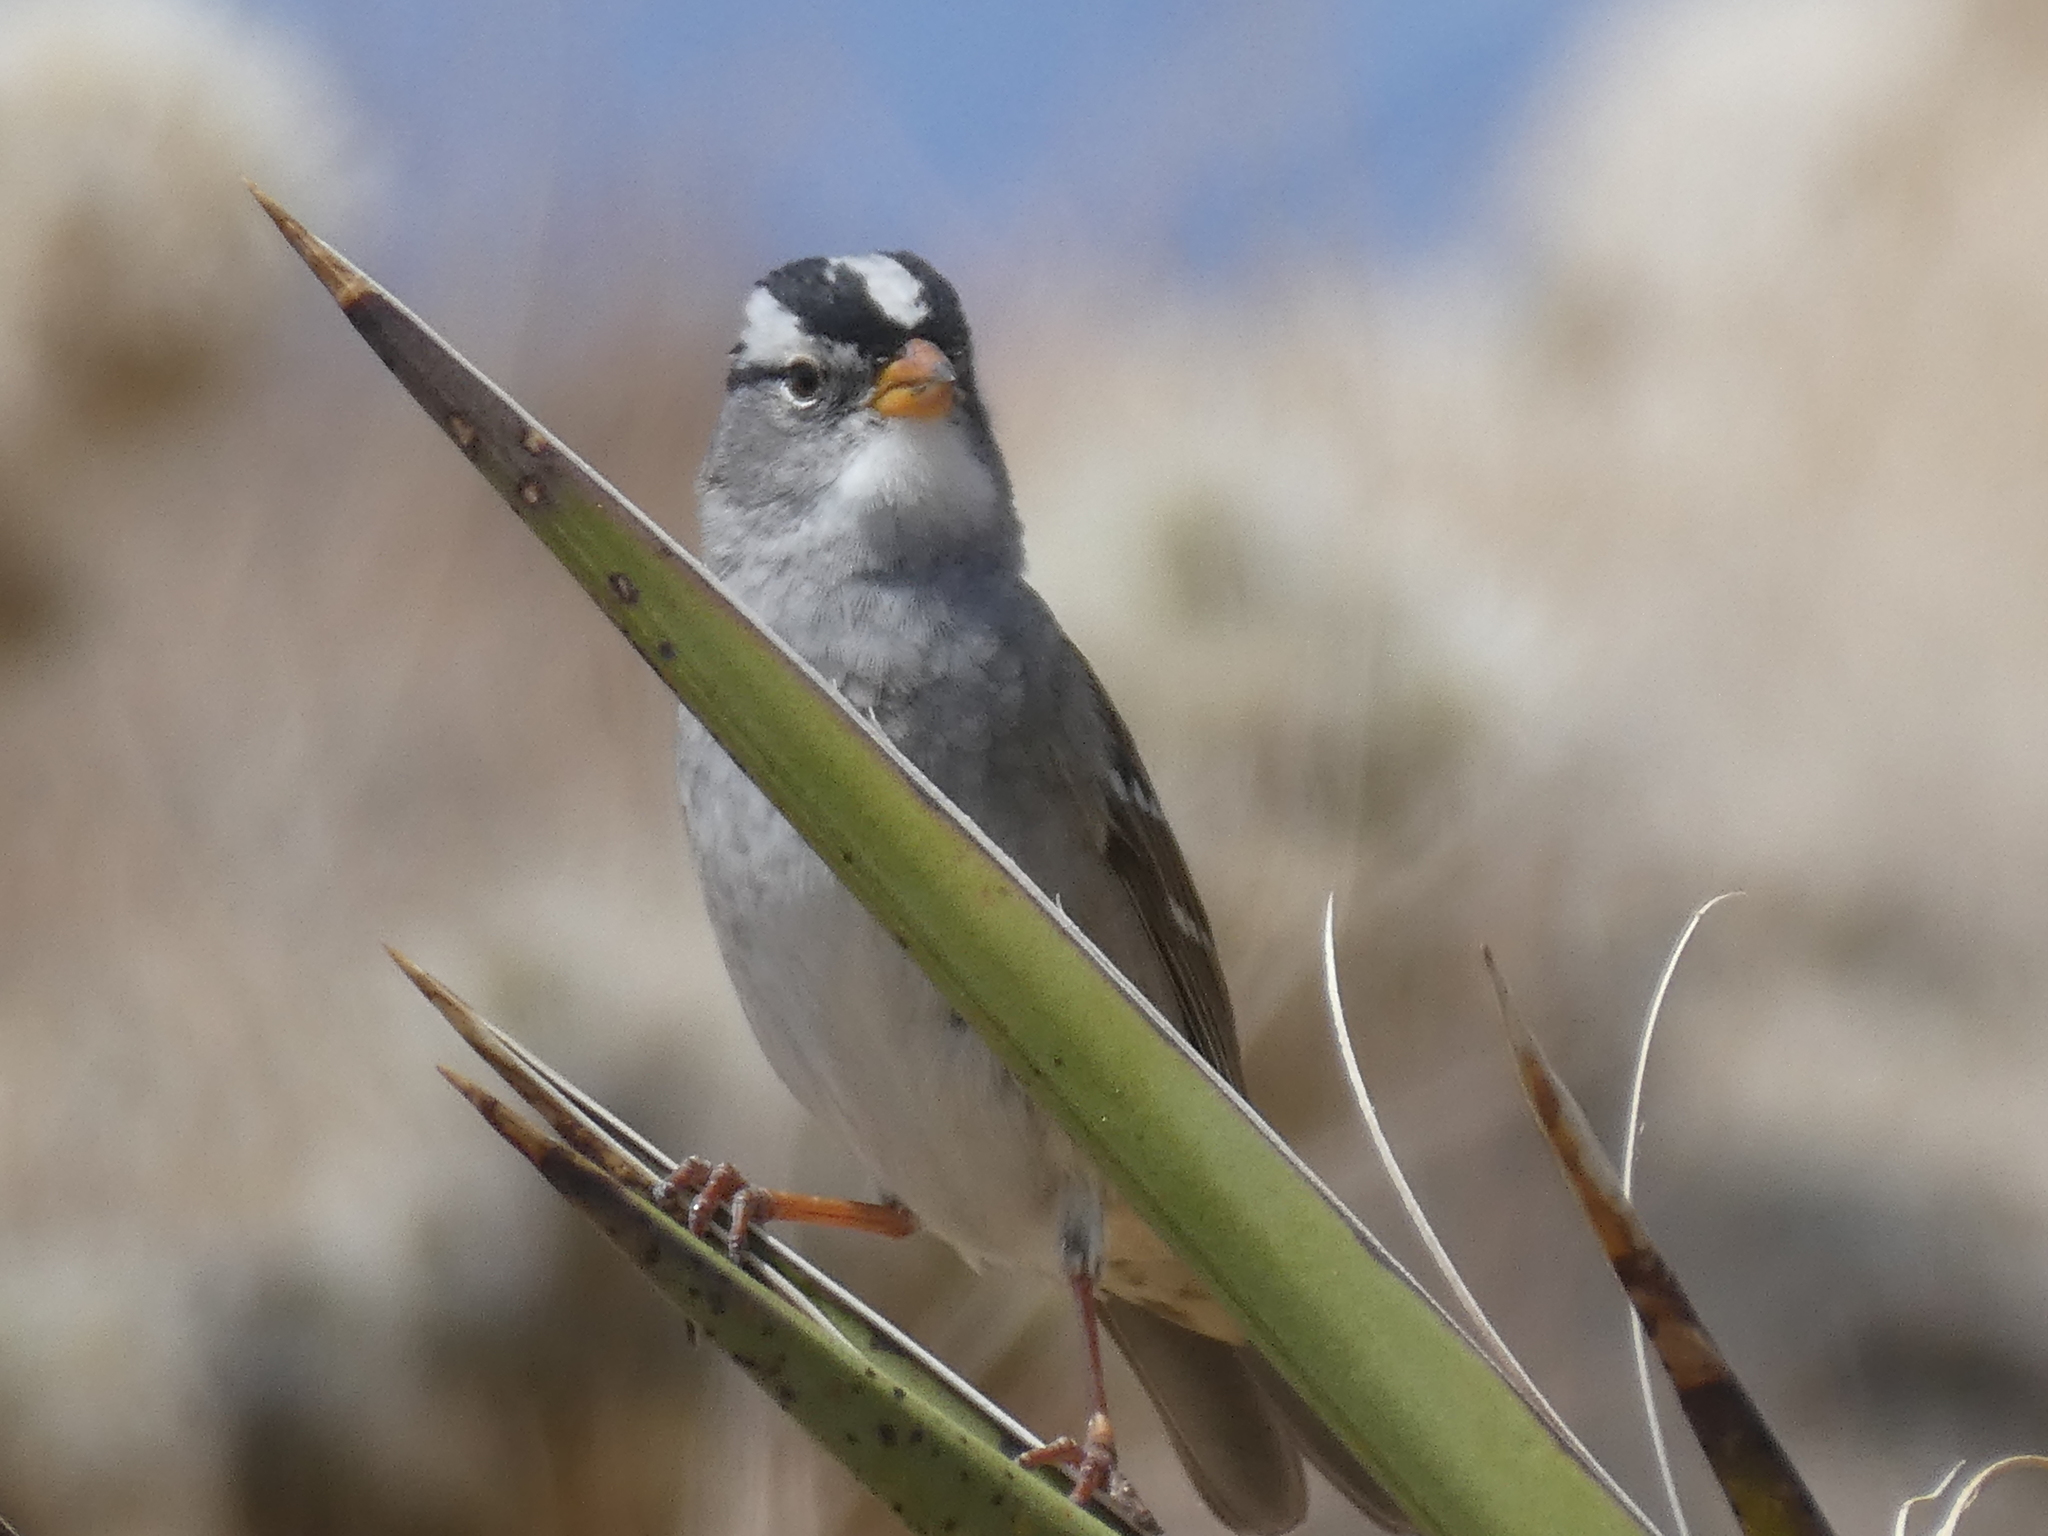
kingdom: Animalia
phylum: Chordata
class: Aves
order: Passeriformes
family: Passerellidae
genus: Zonotrichia
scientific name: Zonotrichia leucophrys
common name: White-crowned sparrow
